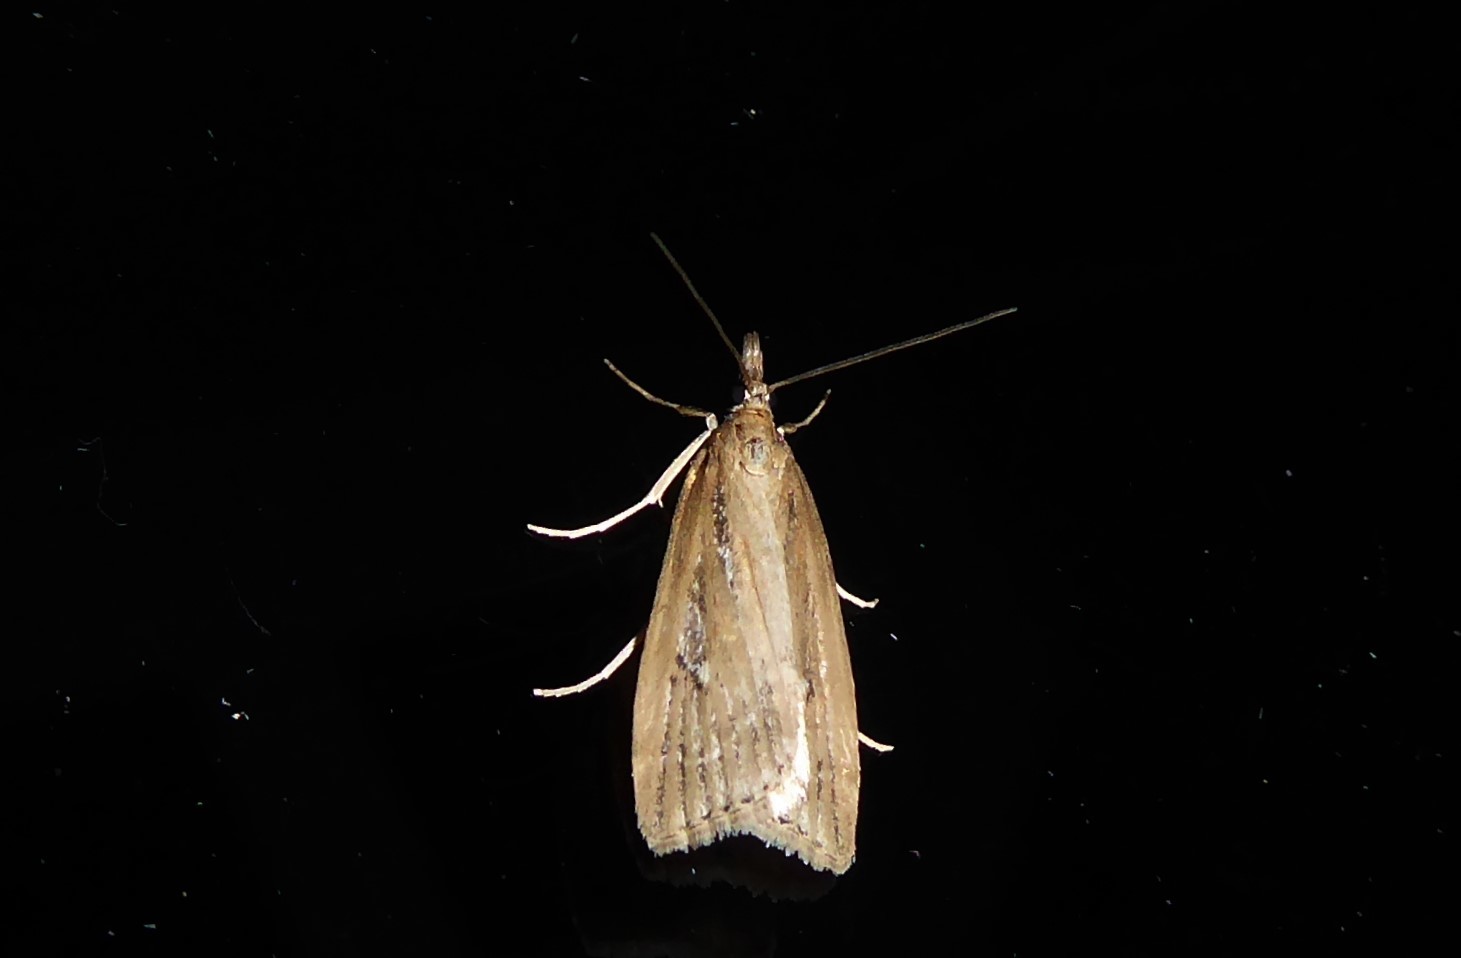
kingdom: Animalia
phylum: Arthropoda
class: Insecta
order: Lepidoptera
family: Crambidae
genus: Eudonia
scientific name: Eudonia octophora
